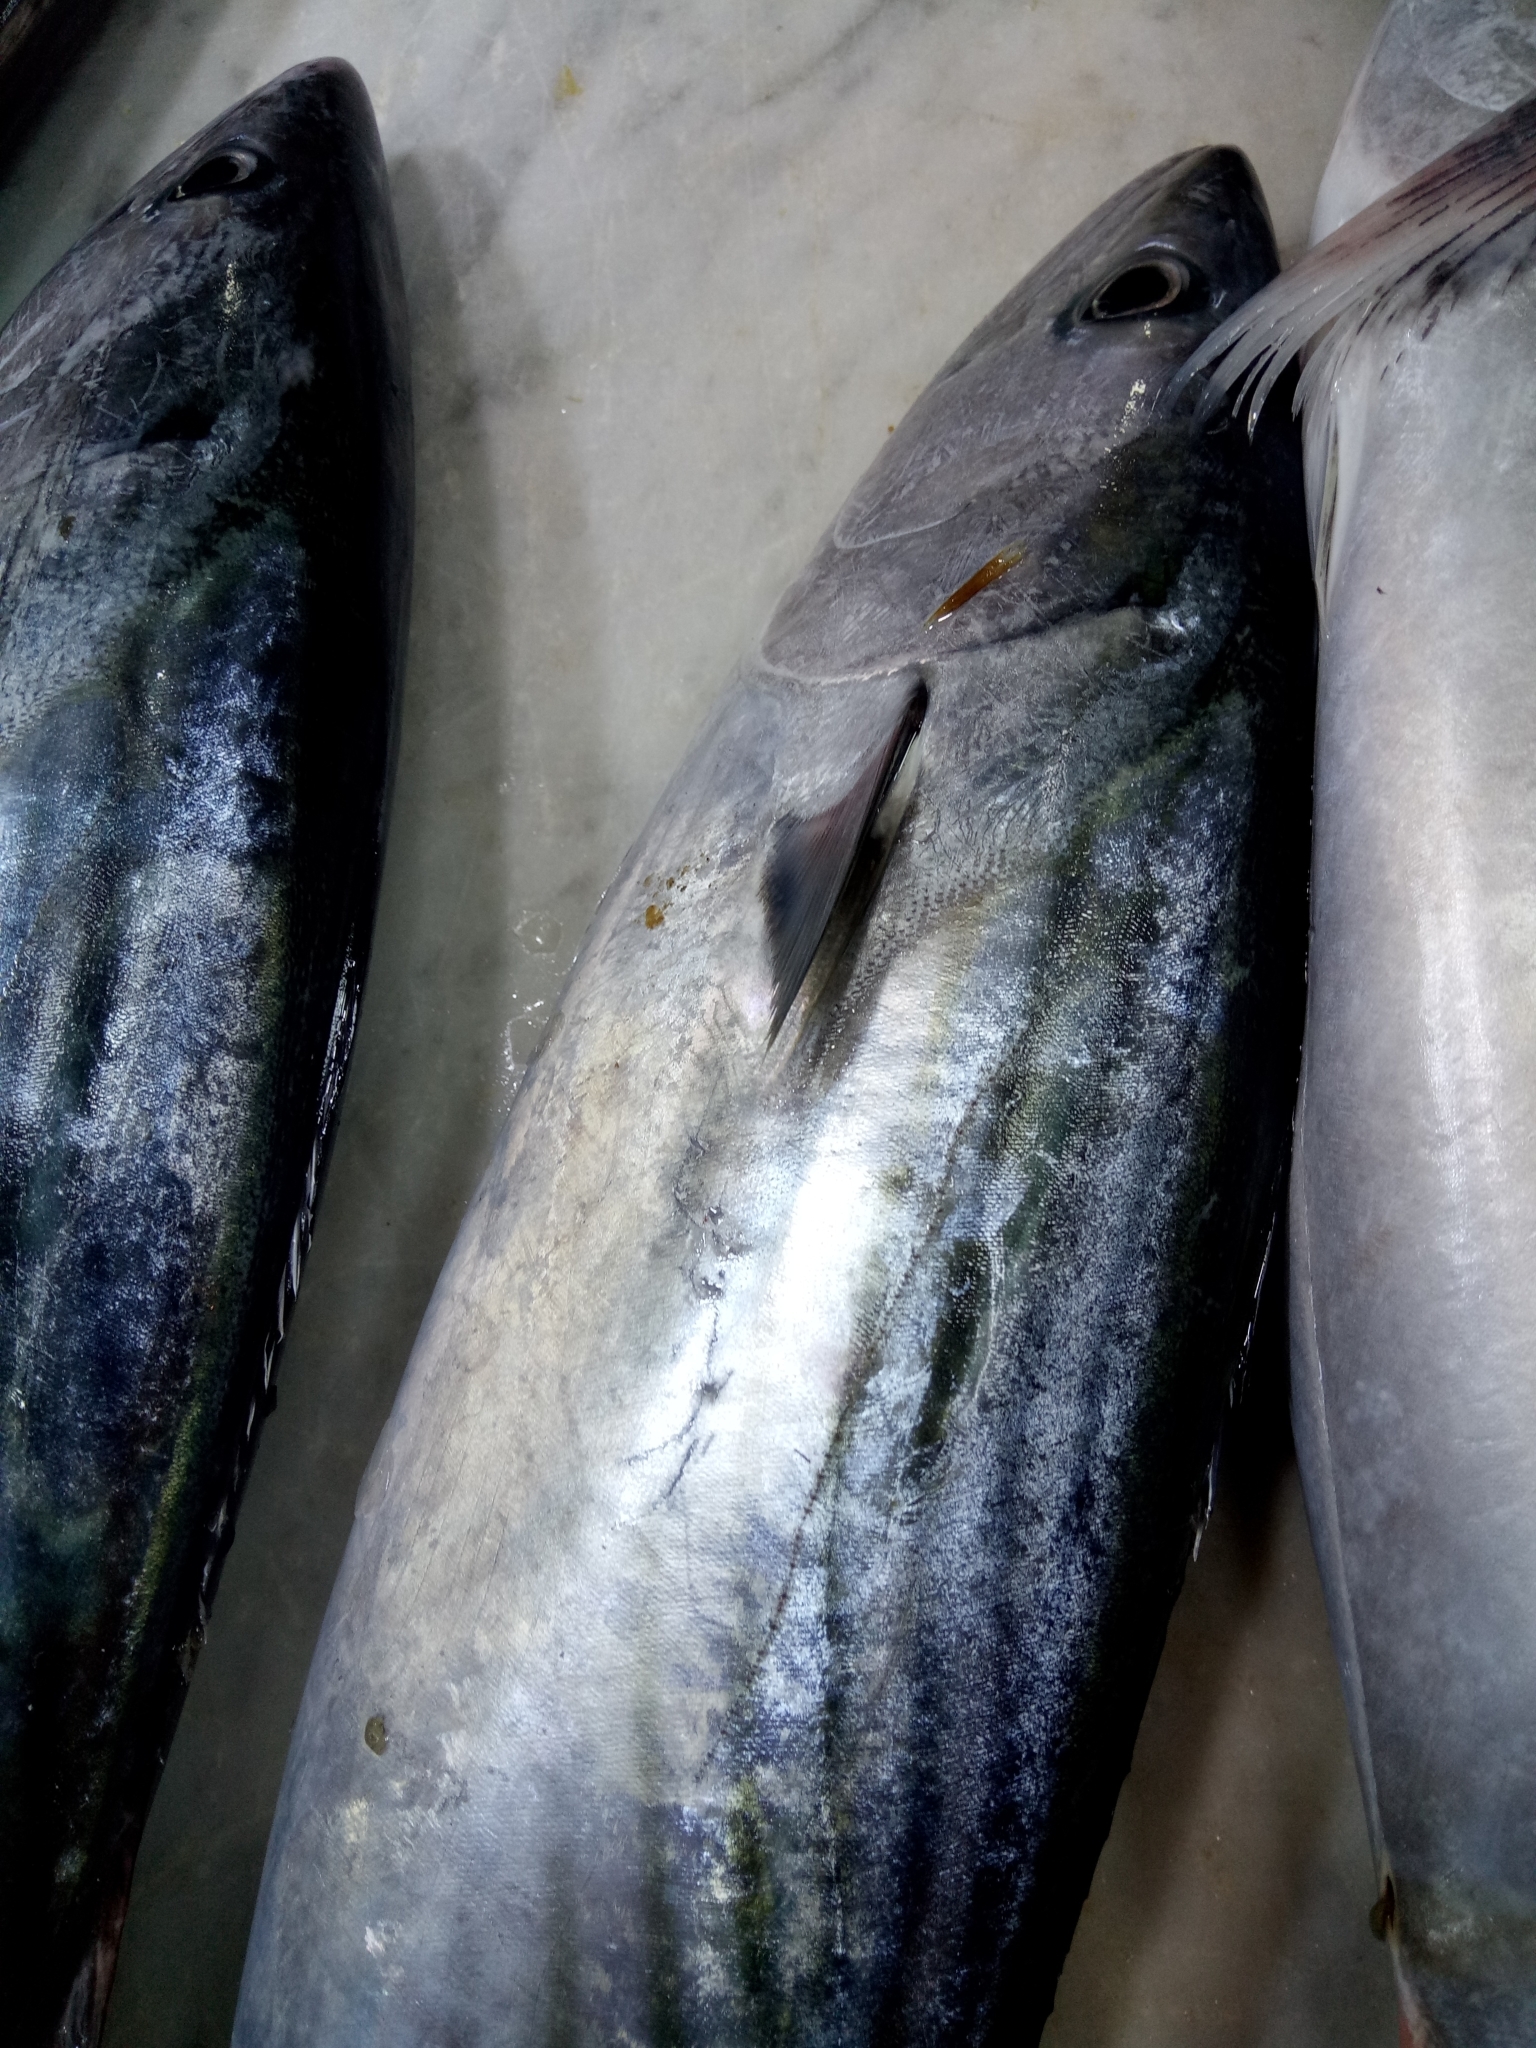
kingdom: Animalia
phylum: Chordata
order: Perciformes
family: Scombridae
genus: Sarda
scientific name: Sarda sarda
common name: Atlantic bonito
